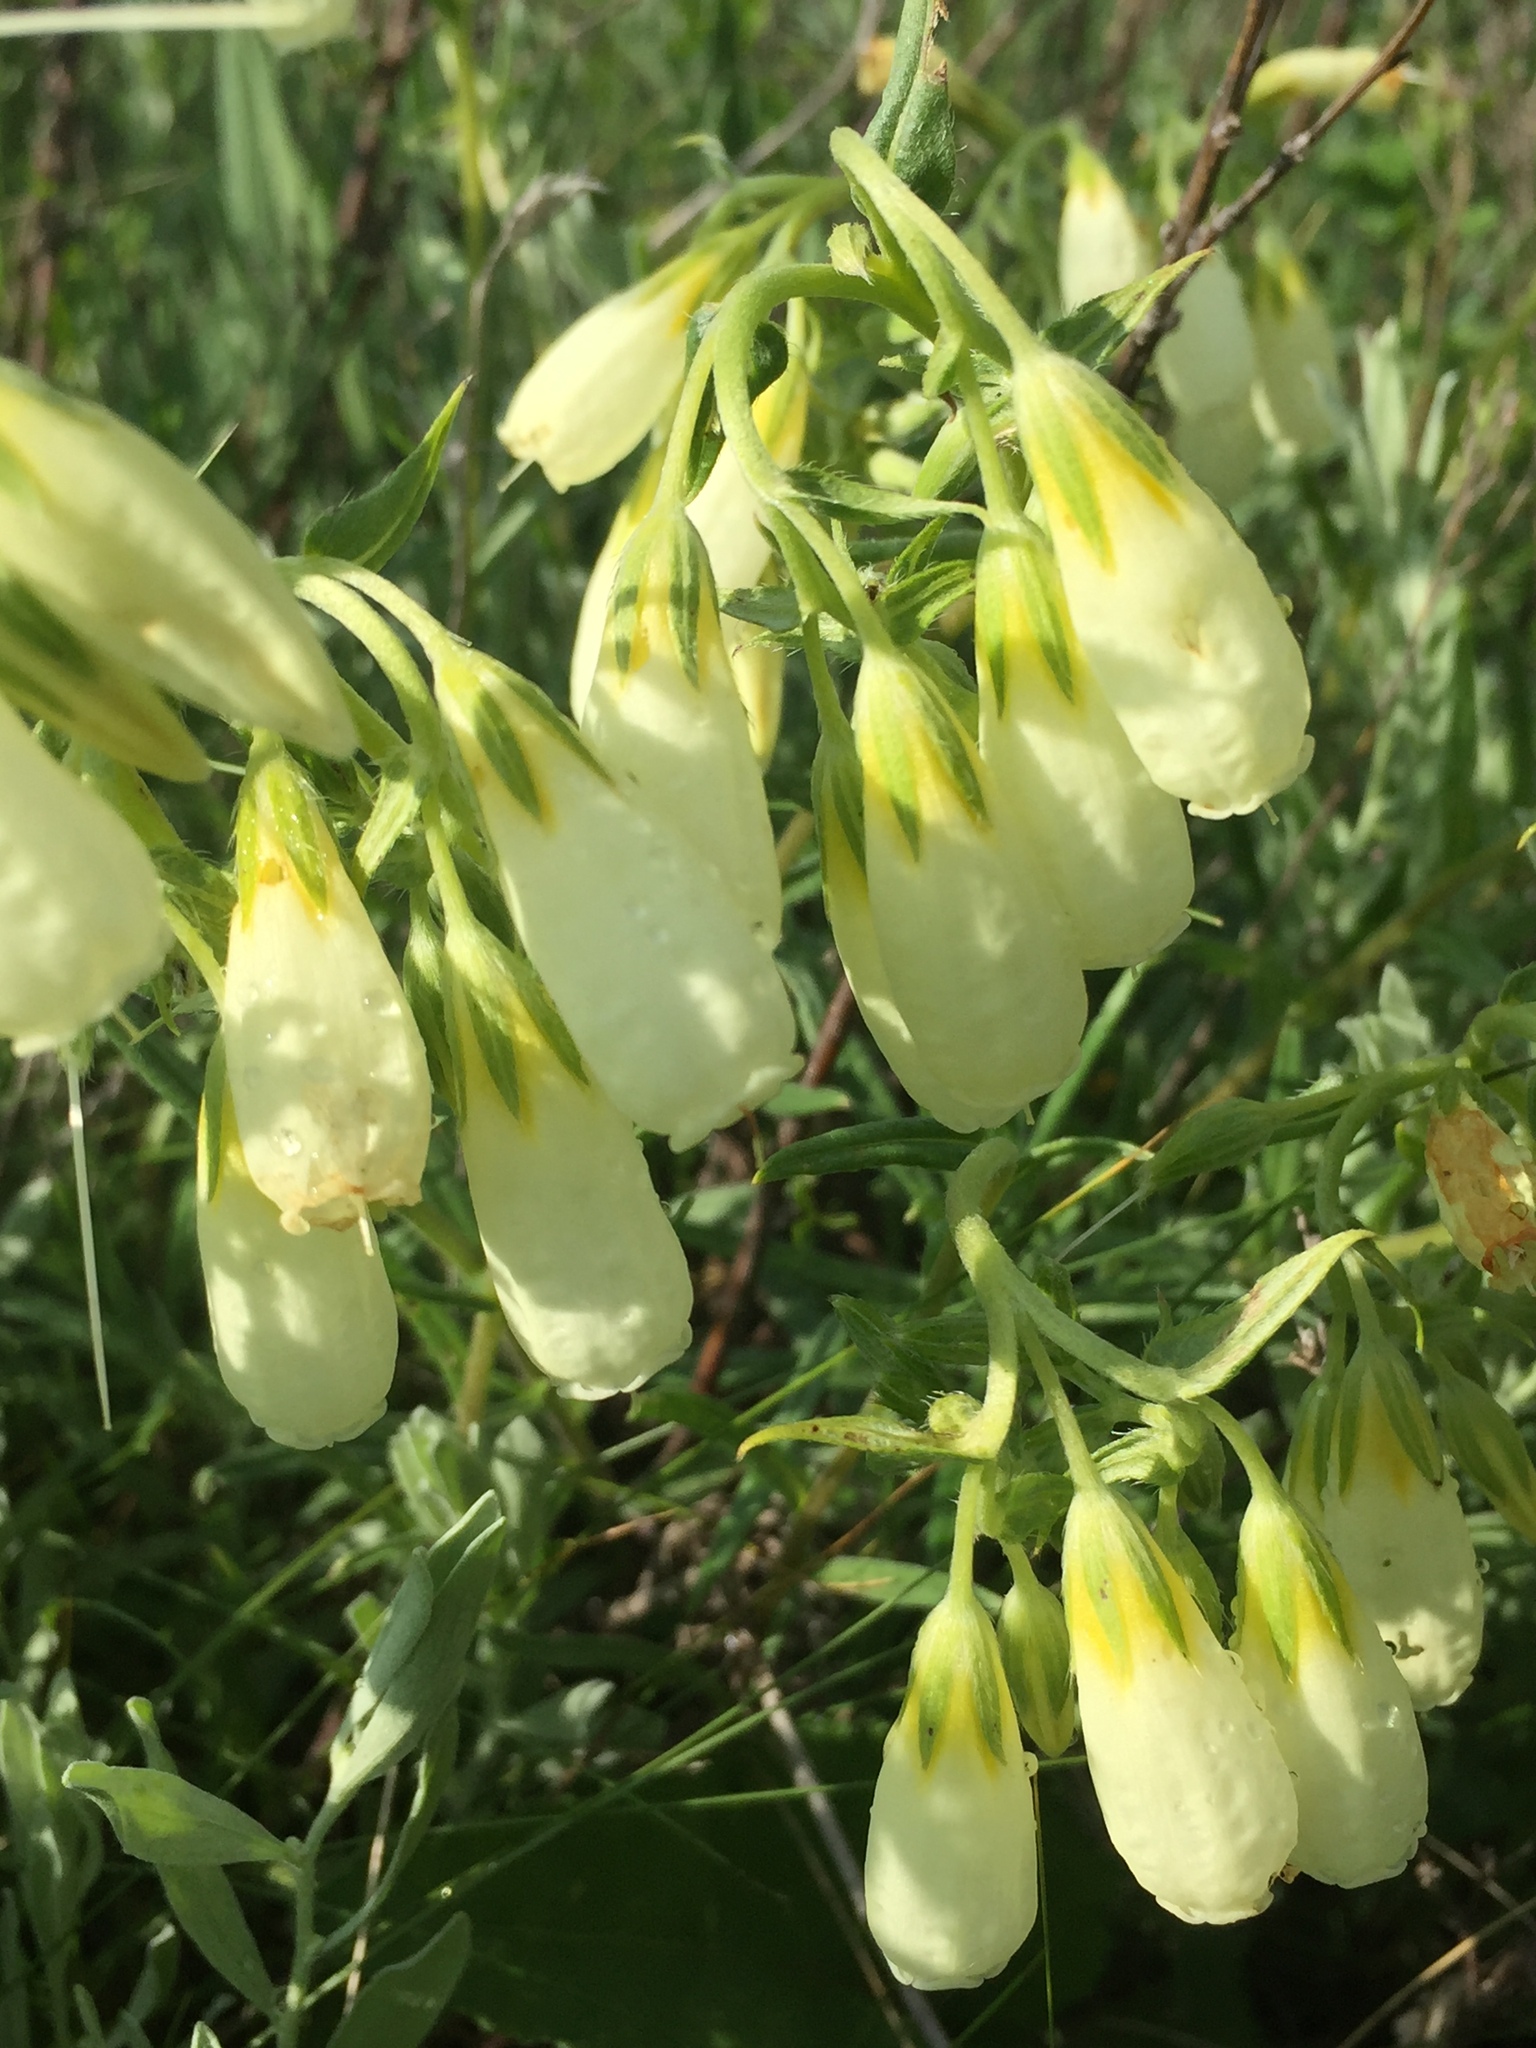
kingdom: Plantae
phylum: Tracheophyta
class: Magnoliopsida
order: Boraginales
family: Boraginaceae
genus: Onosma
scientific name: Onosma simplicissima
